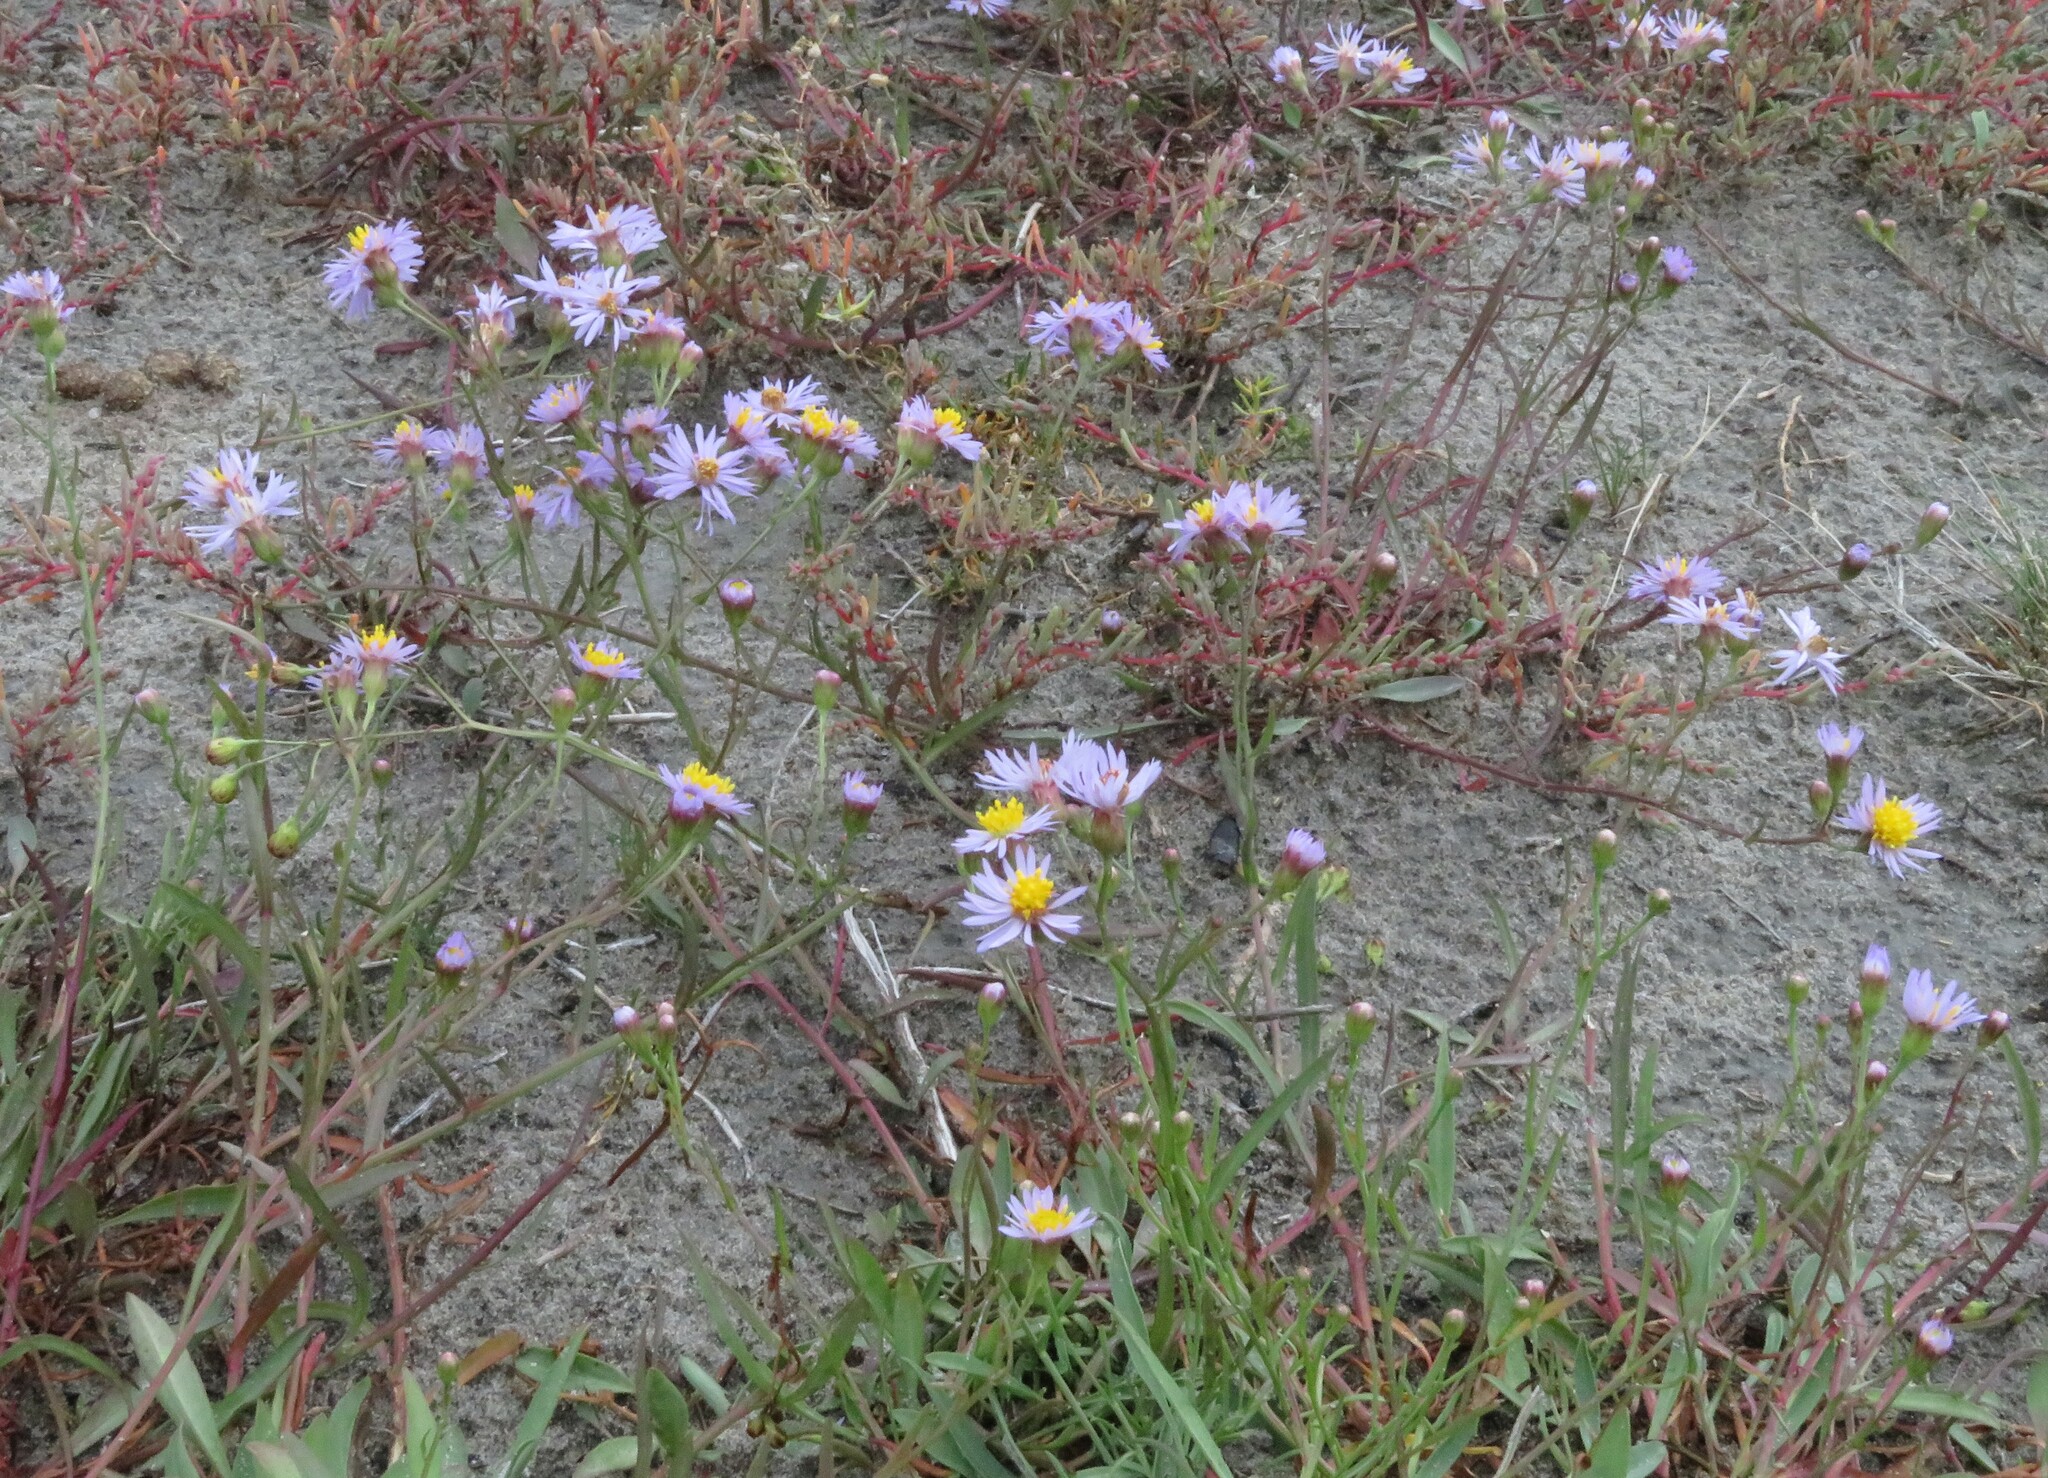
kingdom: Plantae
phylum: Tracheophyta
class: Magnoliopsida
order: Asterales
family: Asteraceae
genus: Tripolium
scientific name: Tripolium pannonicum
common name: Sea aster
